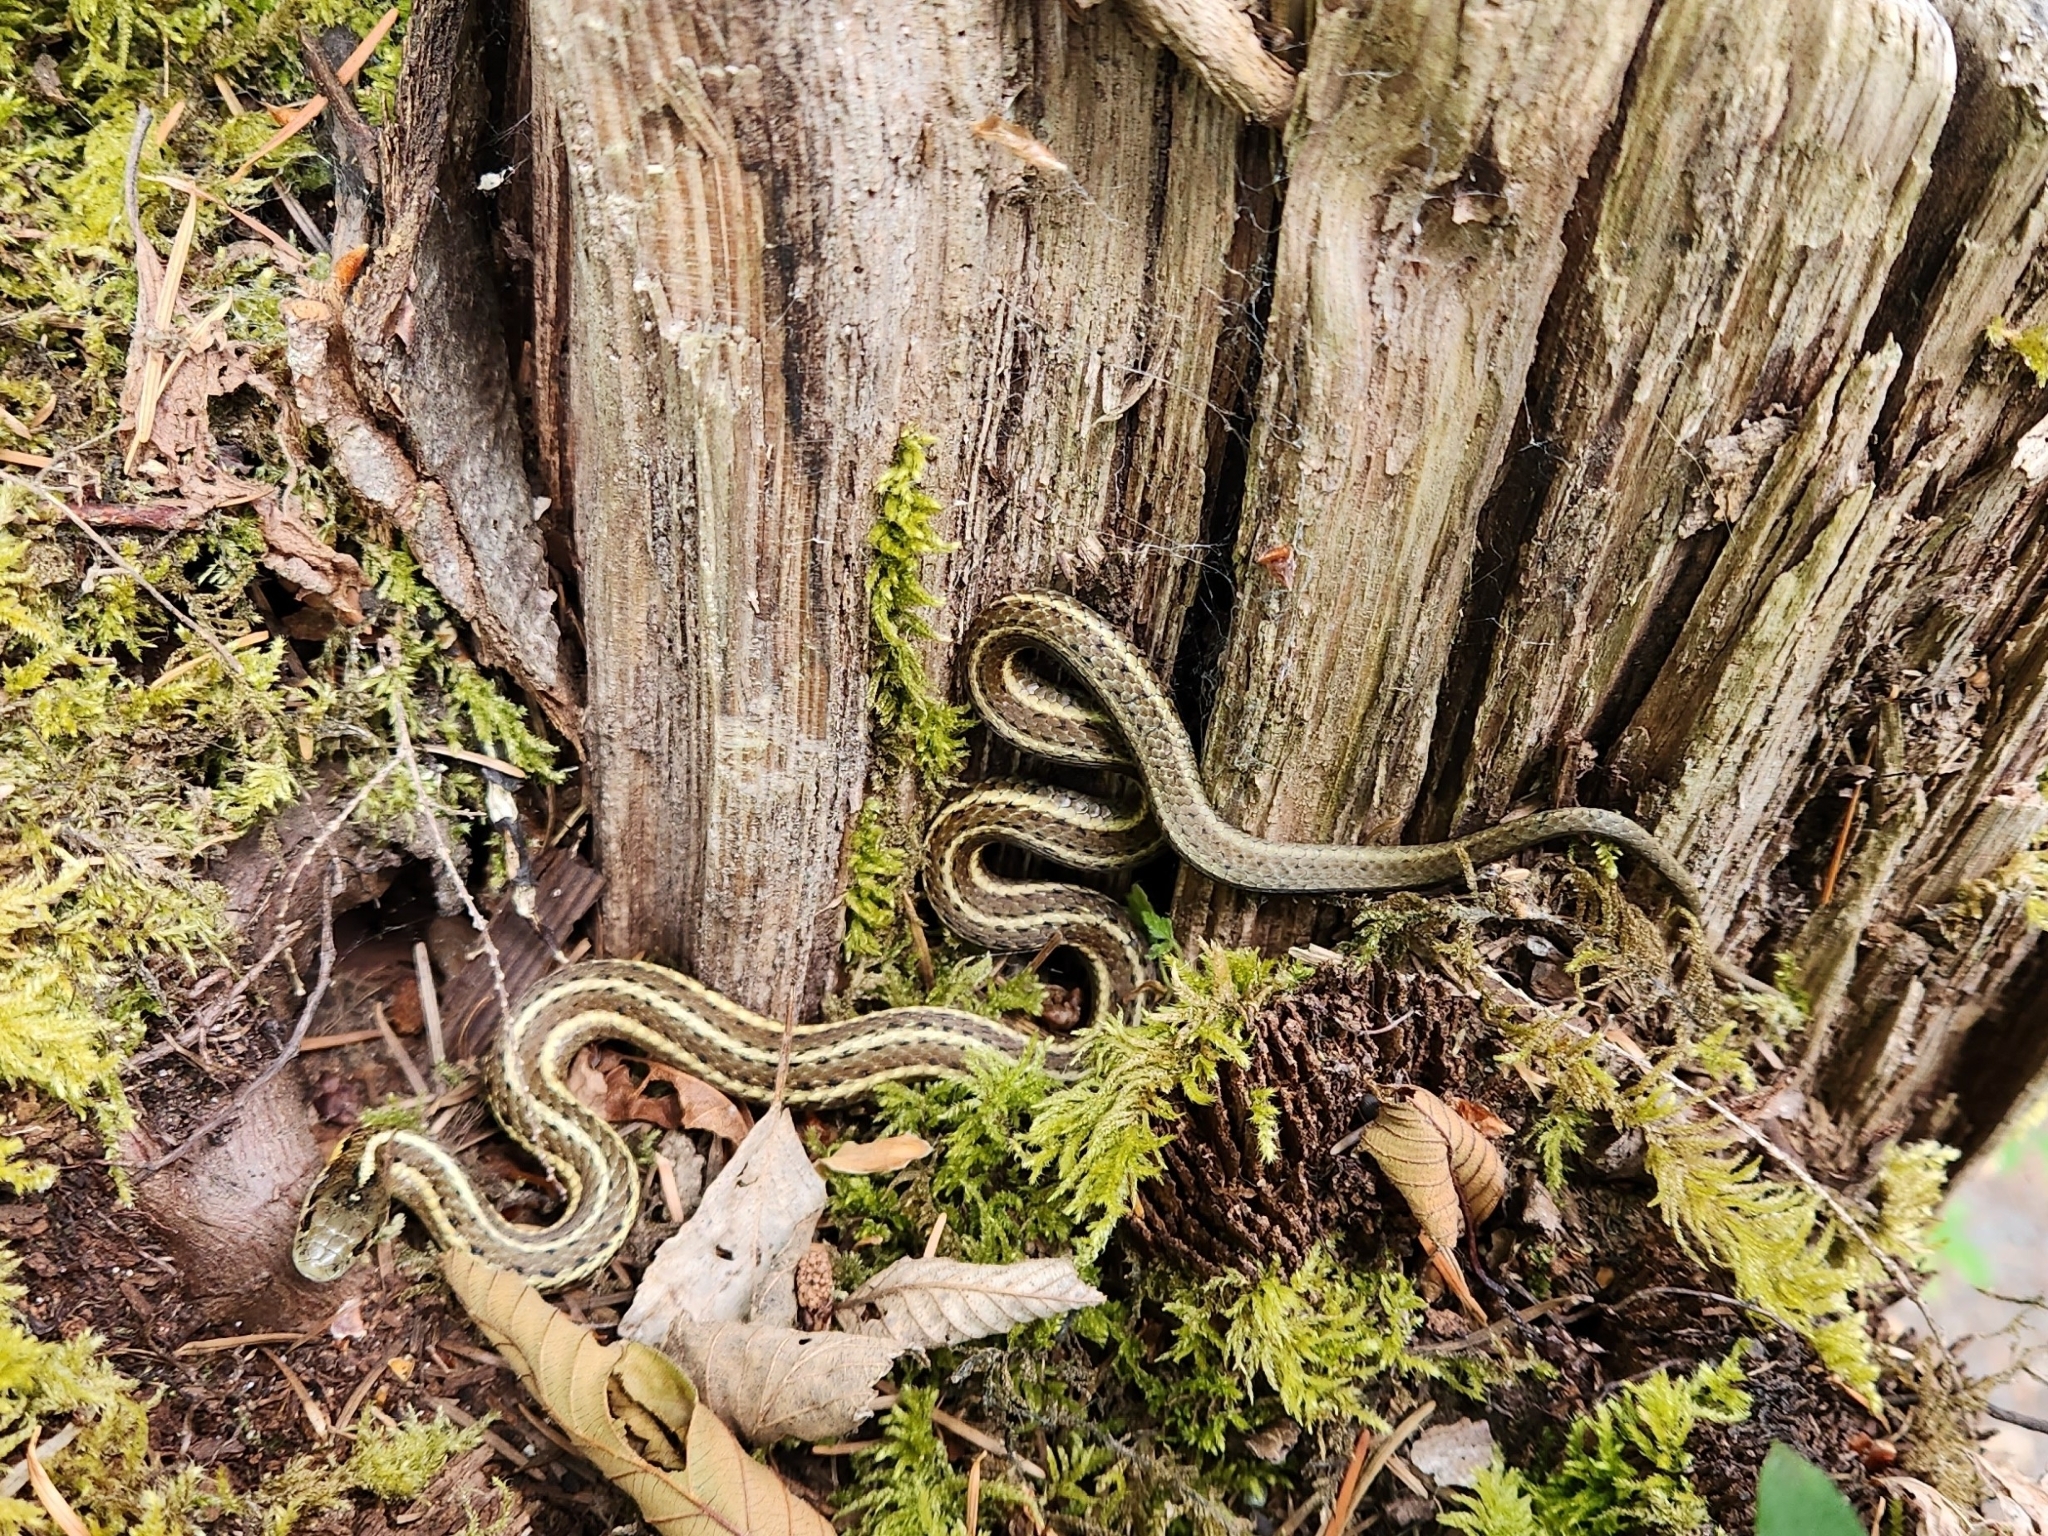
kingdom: Animalia
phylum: Chordata
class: Squamata
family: Colubridae
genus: Thamnophis
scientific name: Thamnophis ordinoides
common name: Northwestern garter snake
